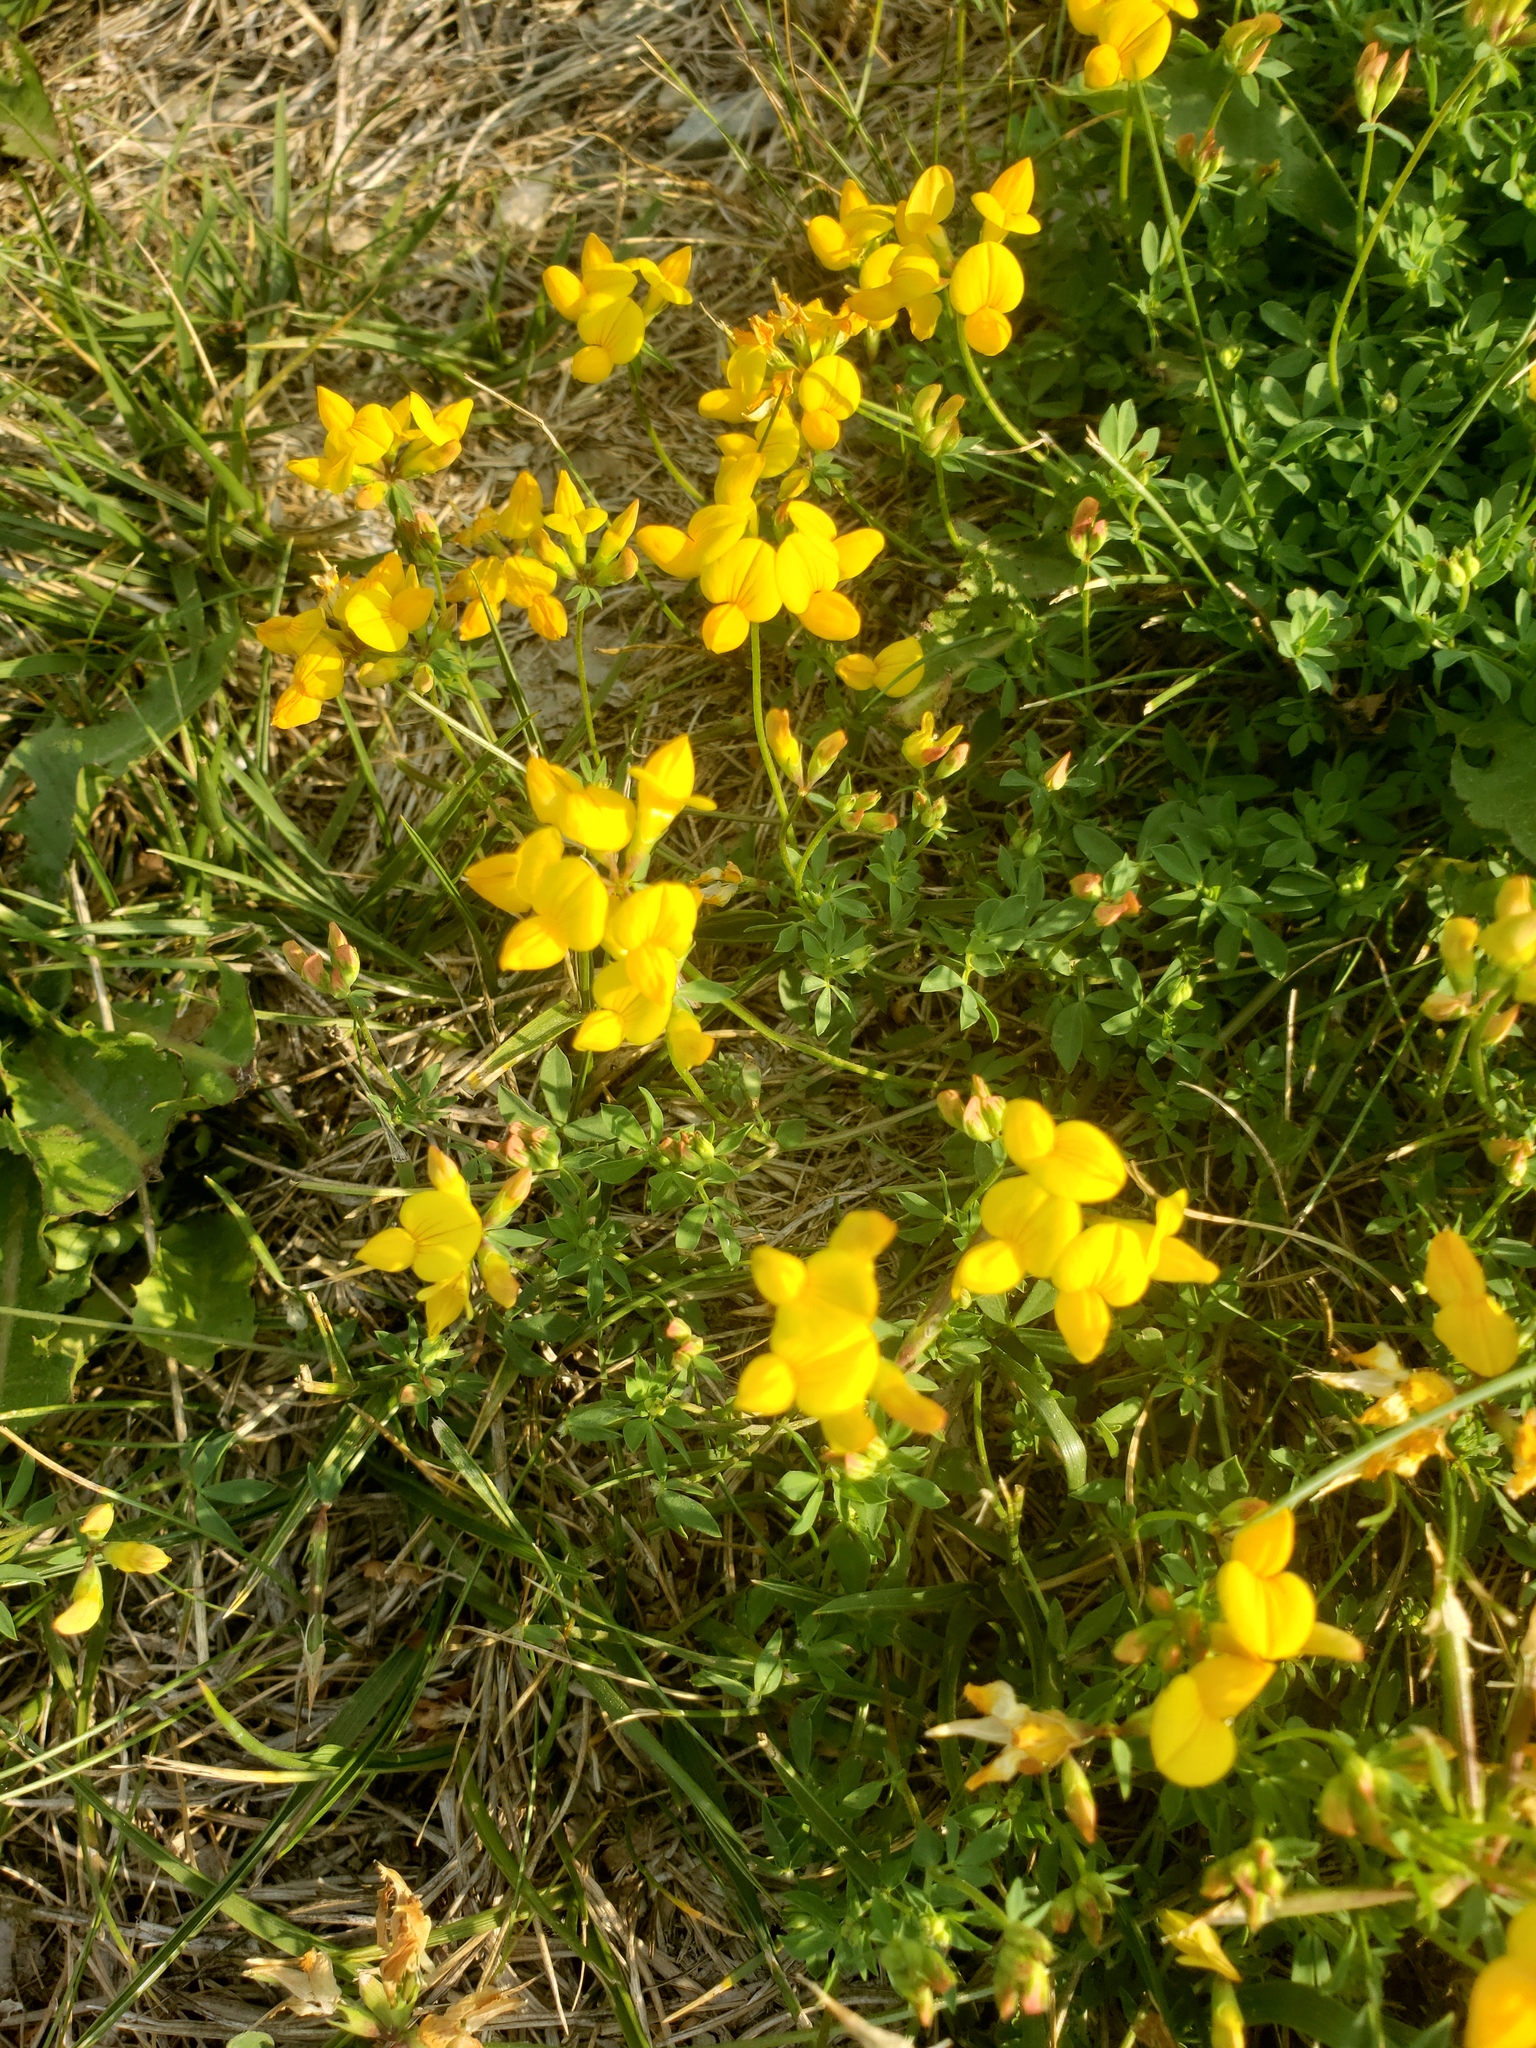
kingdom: Plantae
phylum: Tracheophyta
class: Magnoliopsida
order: Fabales
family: Fabaceae
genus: Lotus
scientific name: Lotus corniculatus
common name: Common bird's-foot-trefoil
